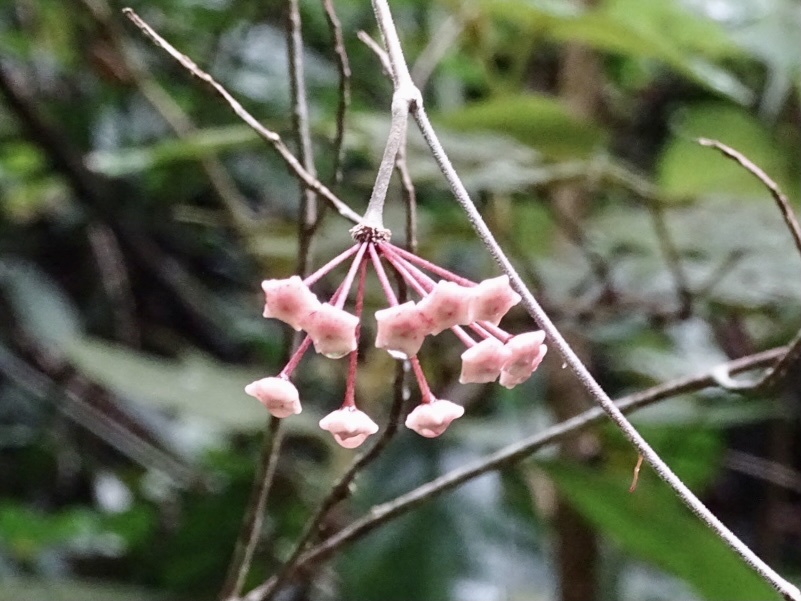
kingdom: Plantae
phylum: Tracheophyta
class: Magnoliopsida
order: Gentianales
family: Apocynaceae
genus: Hoya
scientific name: Hoya carnosa
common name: Honeyplant
